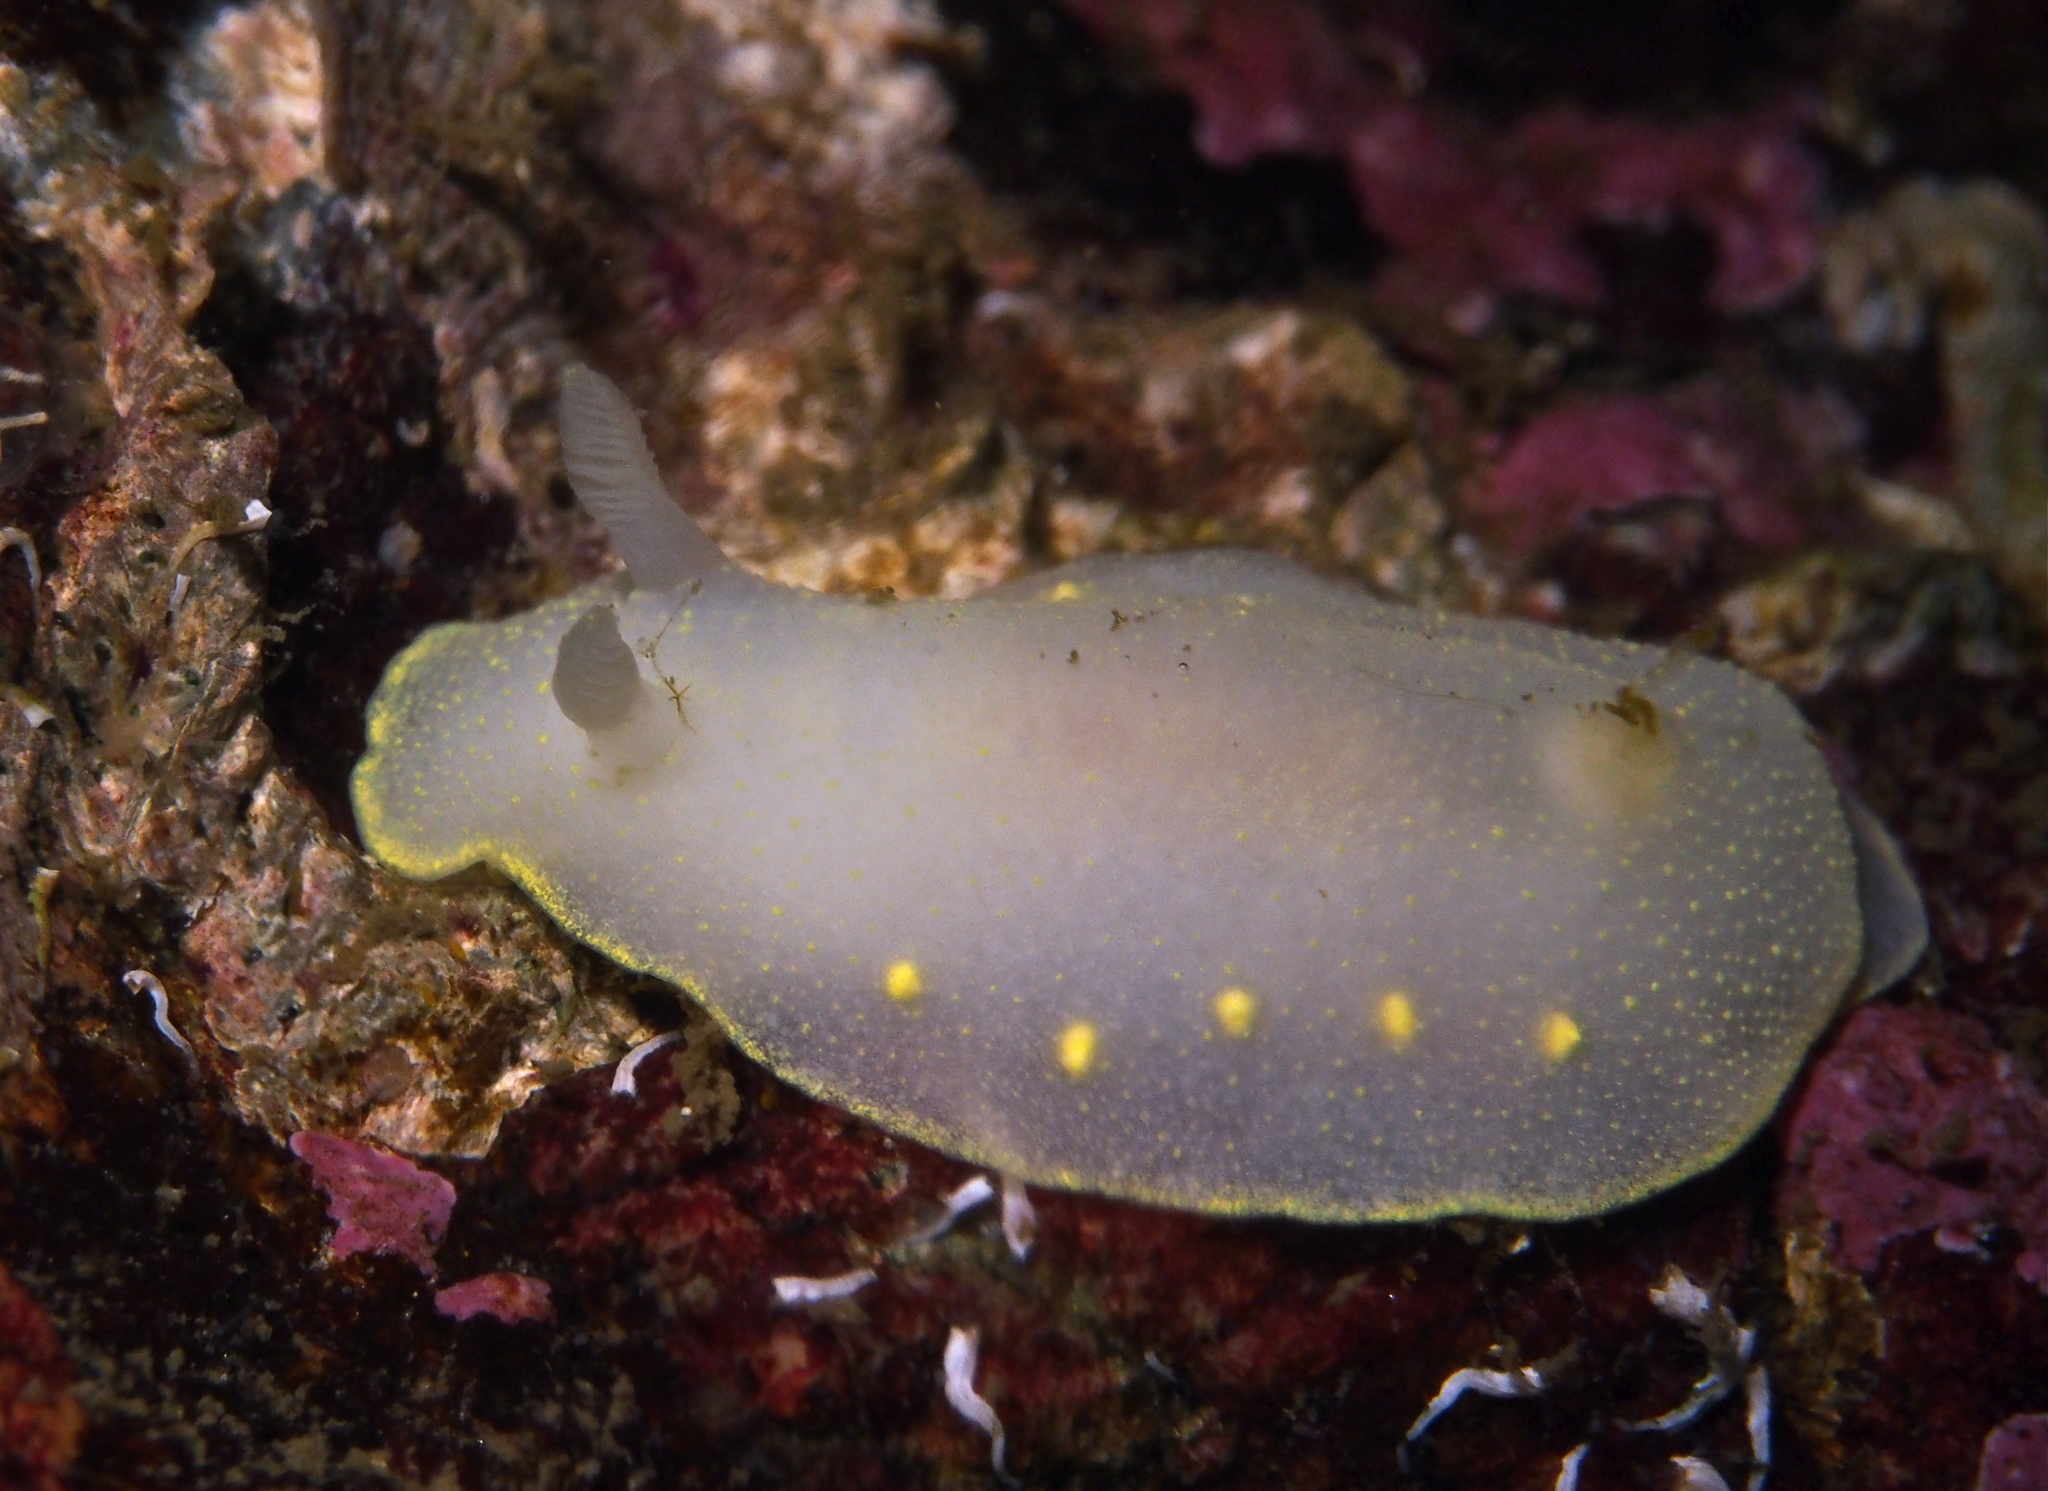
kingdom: Animalia
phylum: Mollusca
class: Gastropoda
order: Nudibranchia
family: Cadlinidae
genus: Cadlina
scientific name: Cadlina laevis
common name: White atlantic cadlina
